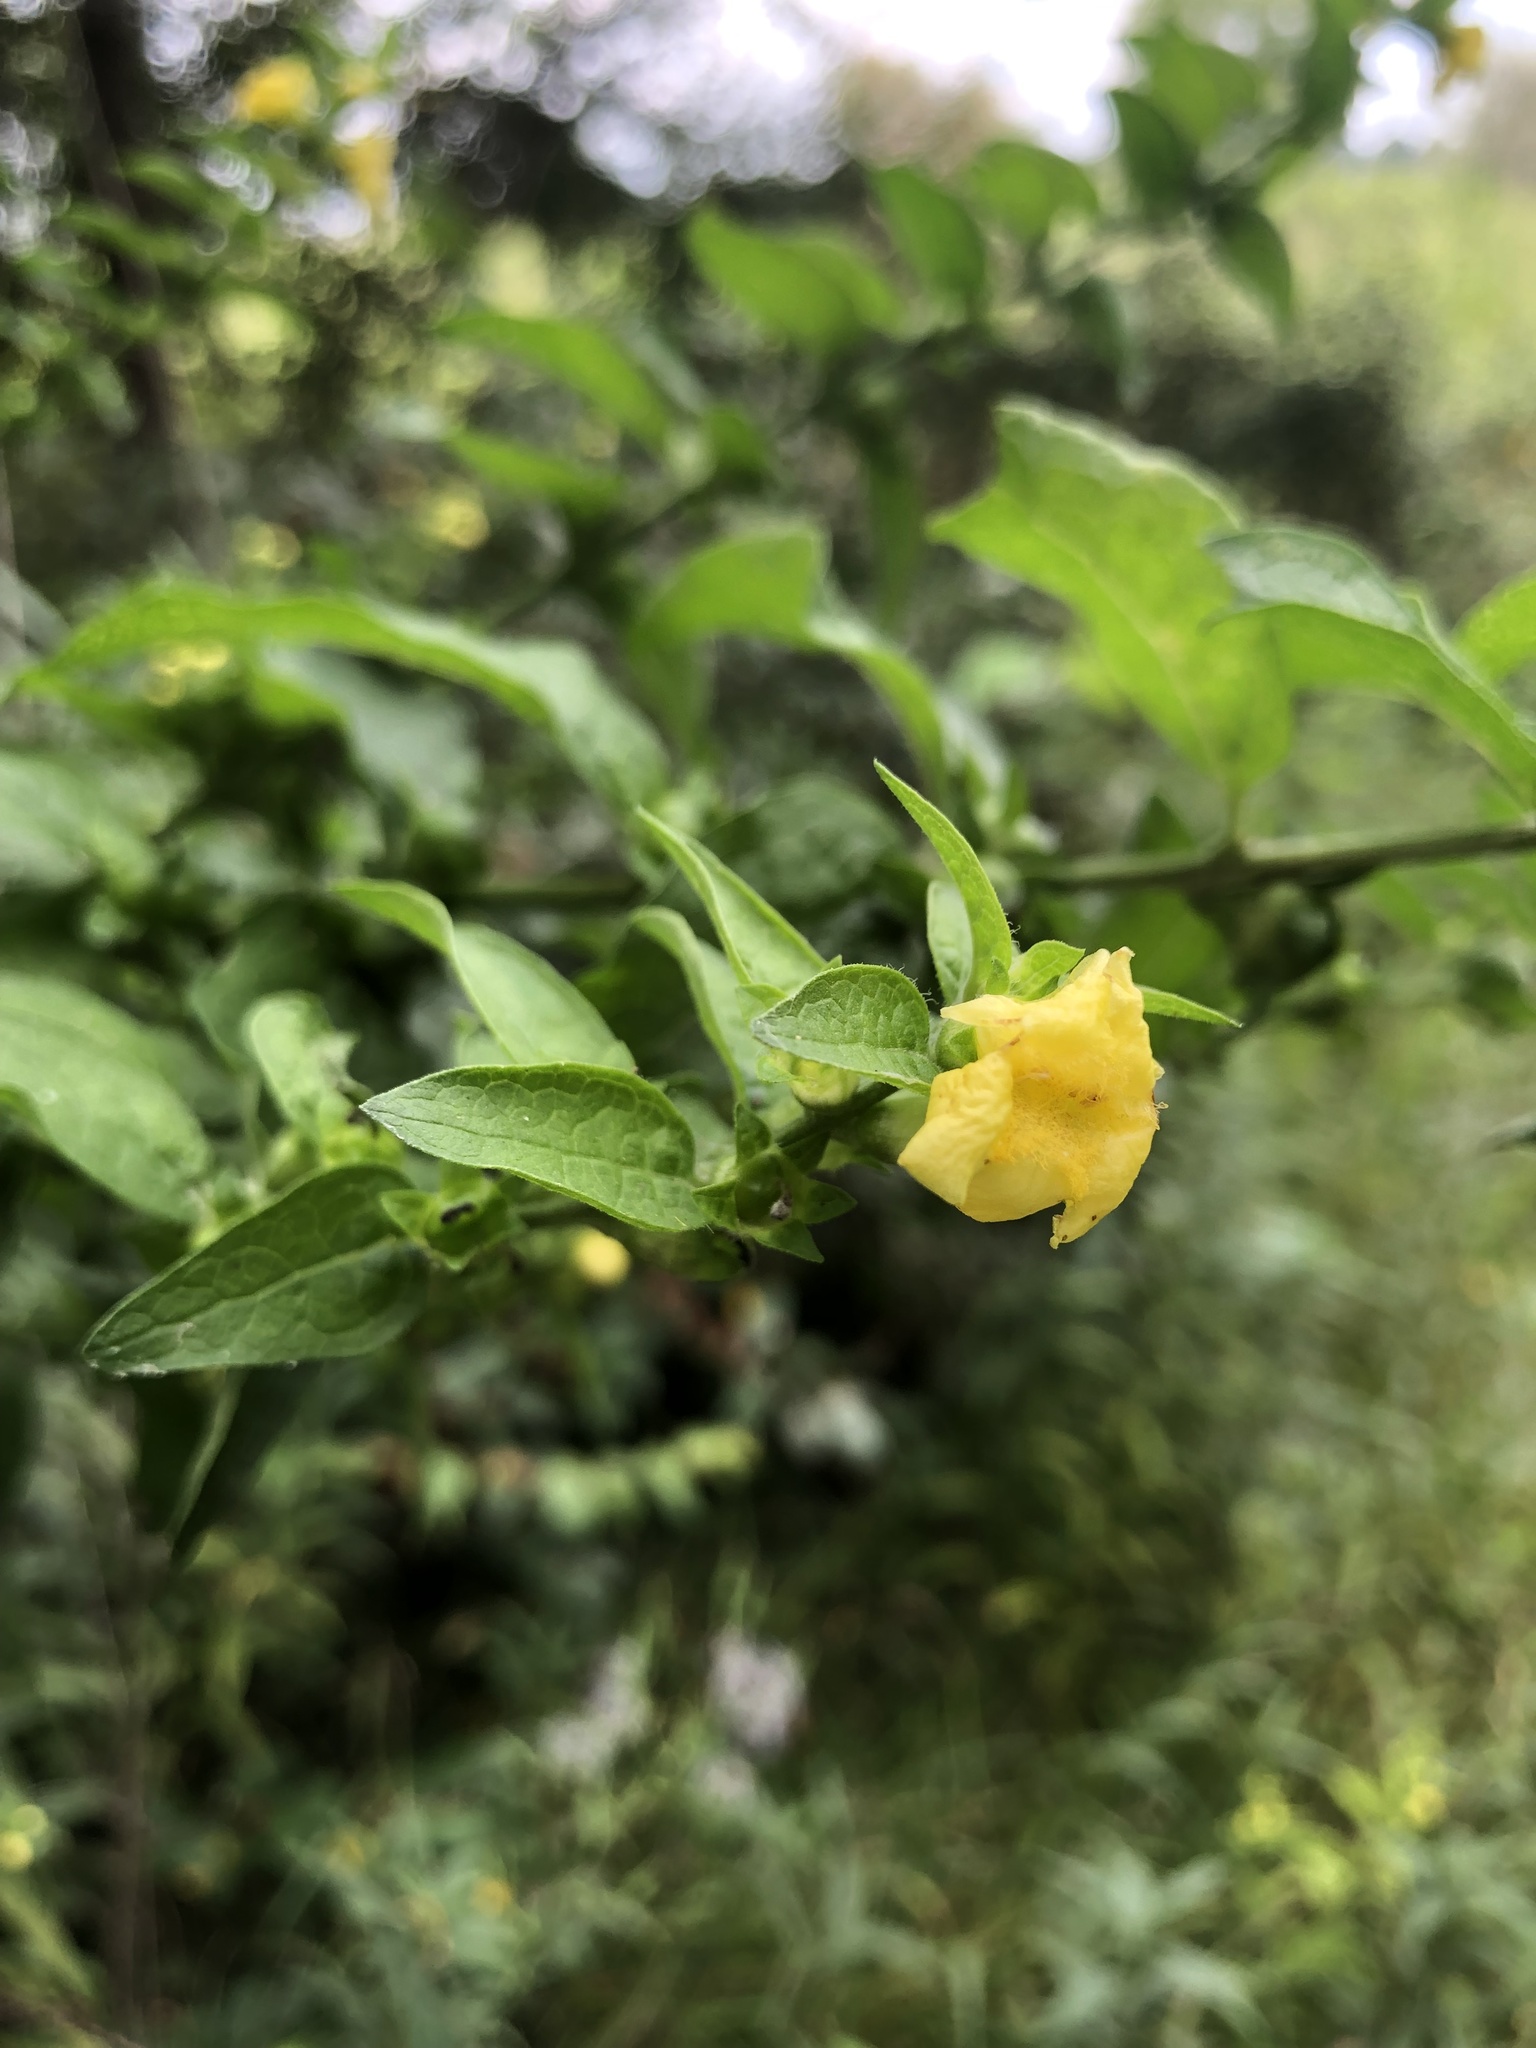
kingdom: Plantae
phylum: Tracheophyta
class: Magnoliopsida
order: Lamiales
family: Orobanchaceae
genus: Dasistoma
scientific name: Dasistoma macrophyllum
